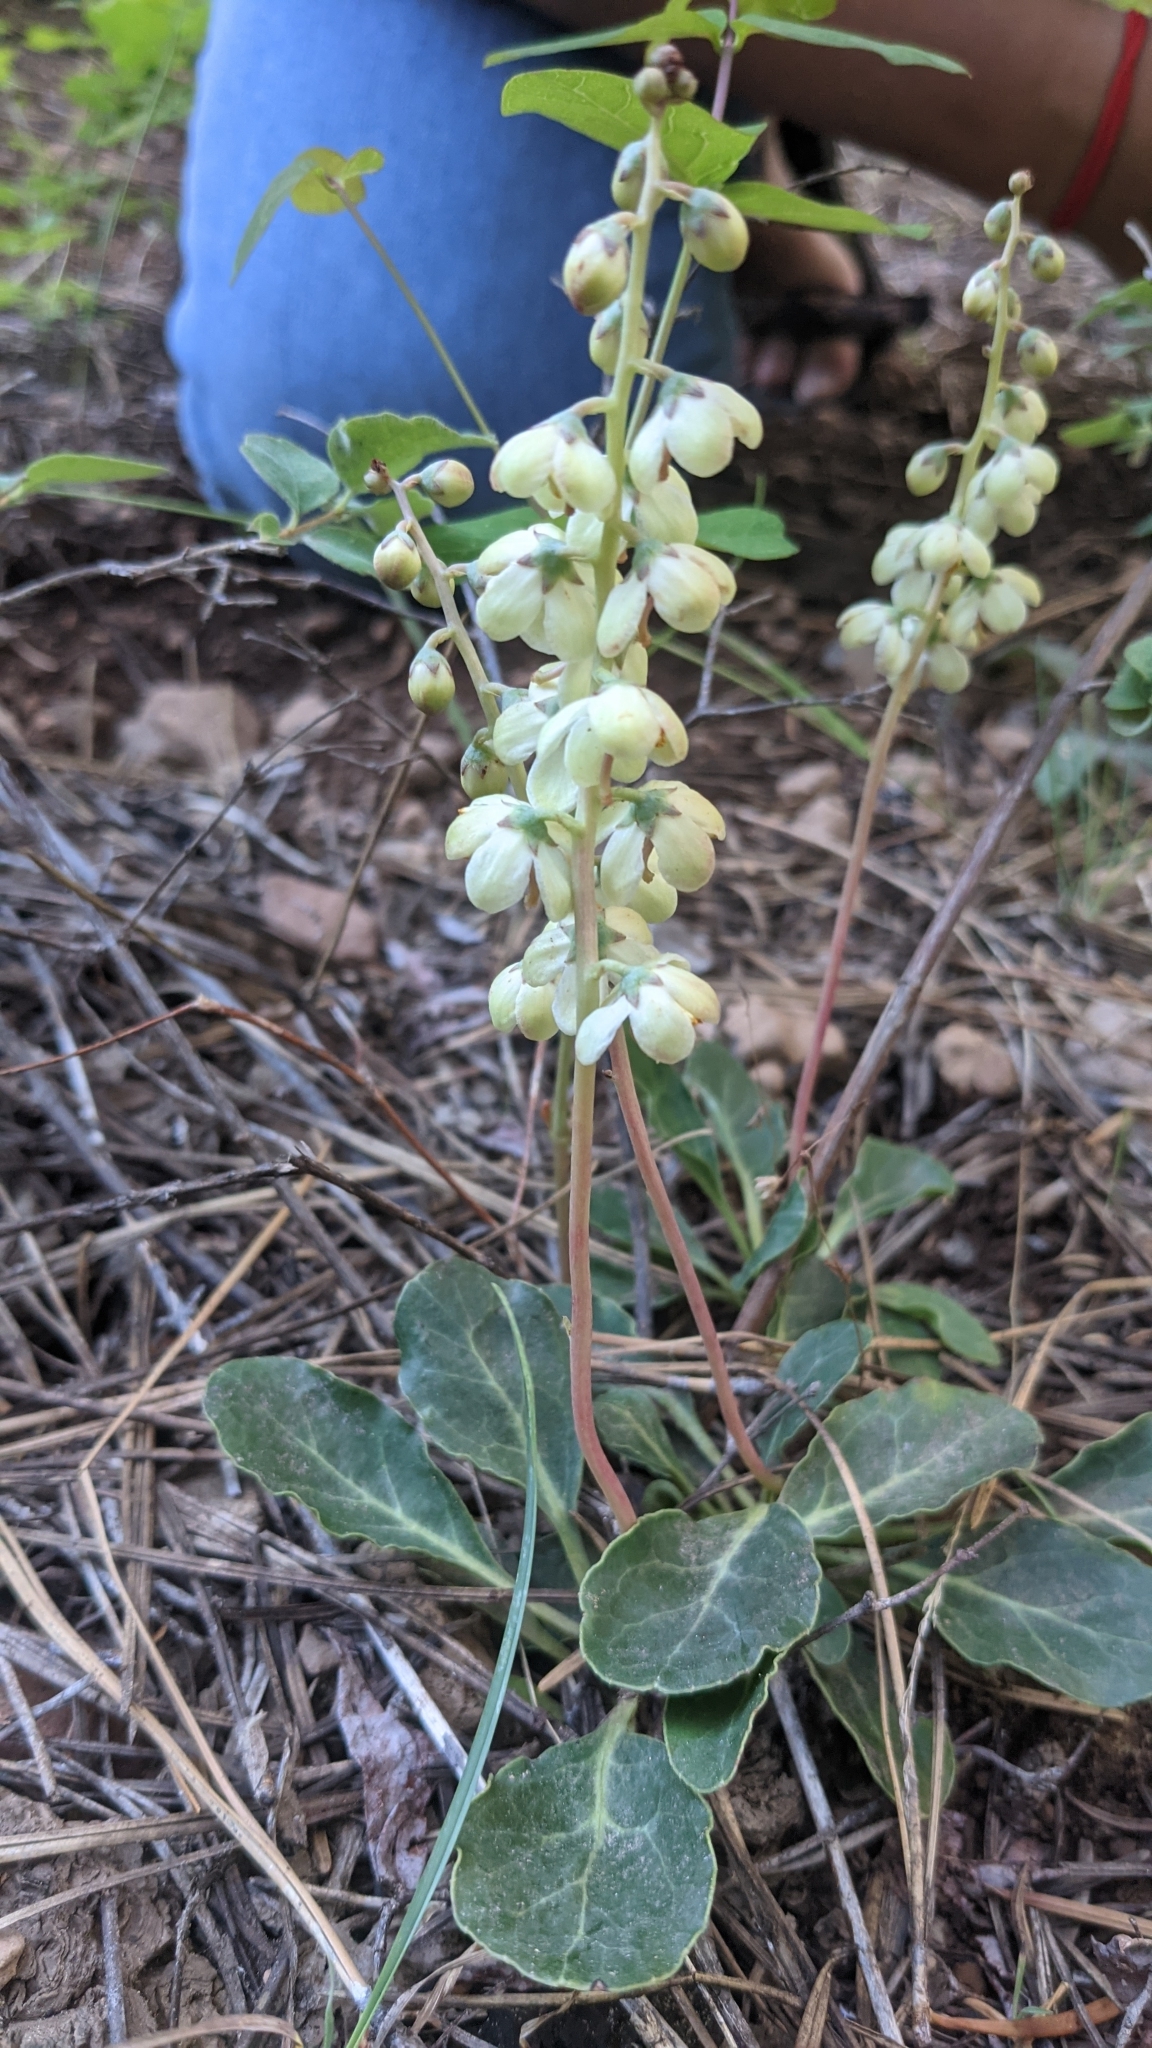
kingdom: Plantae
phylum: Tracheophyta
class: Magnoliopsida
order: Ericales
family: Ericaceae
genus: Pyrola
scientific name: Pyrola dentata
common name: Tooth-leaved wintergreen
